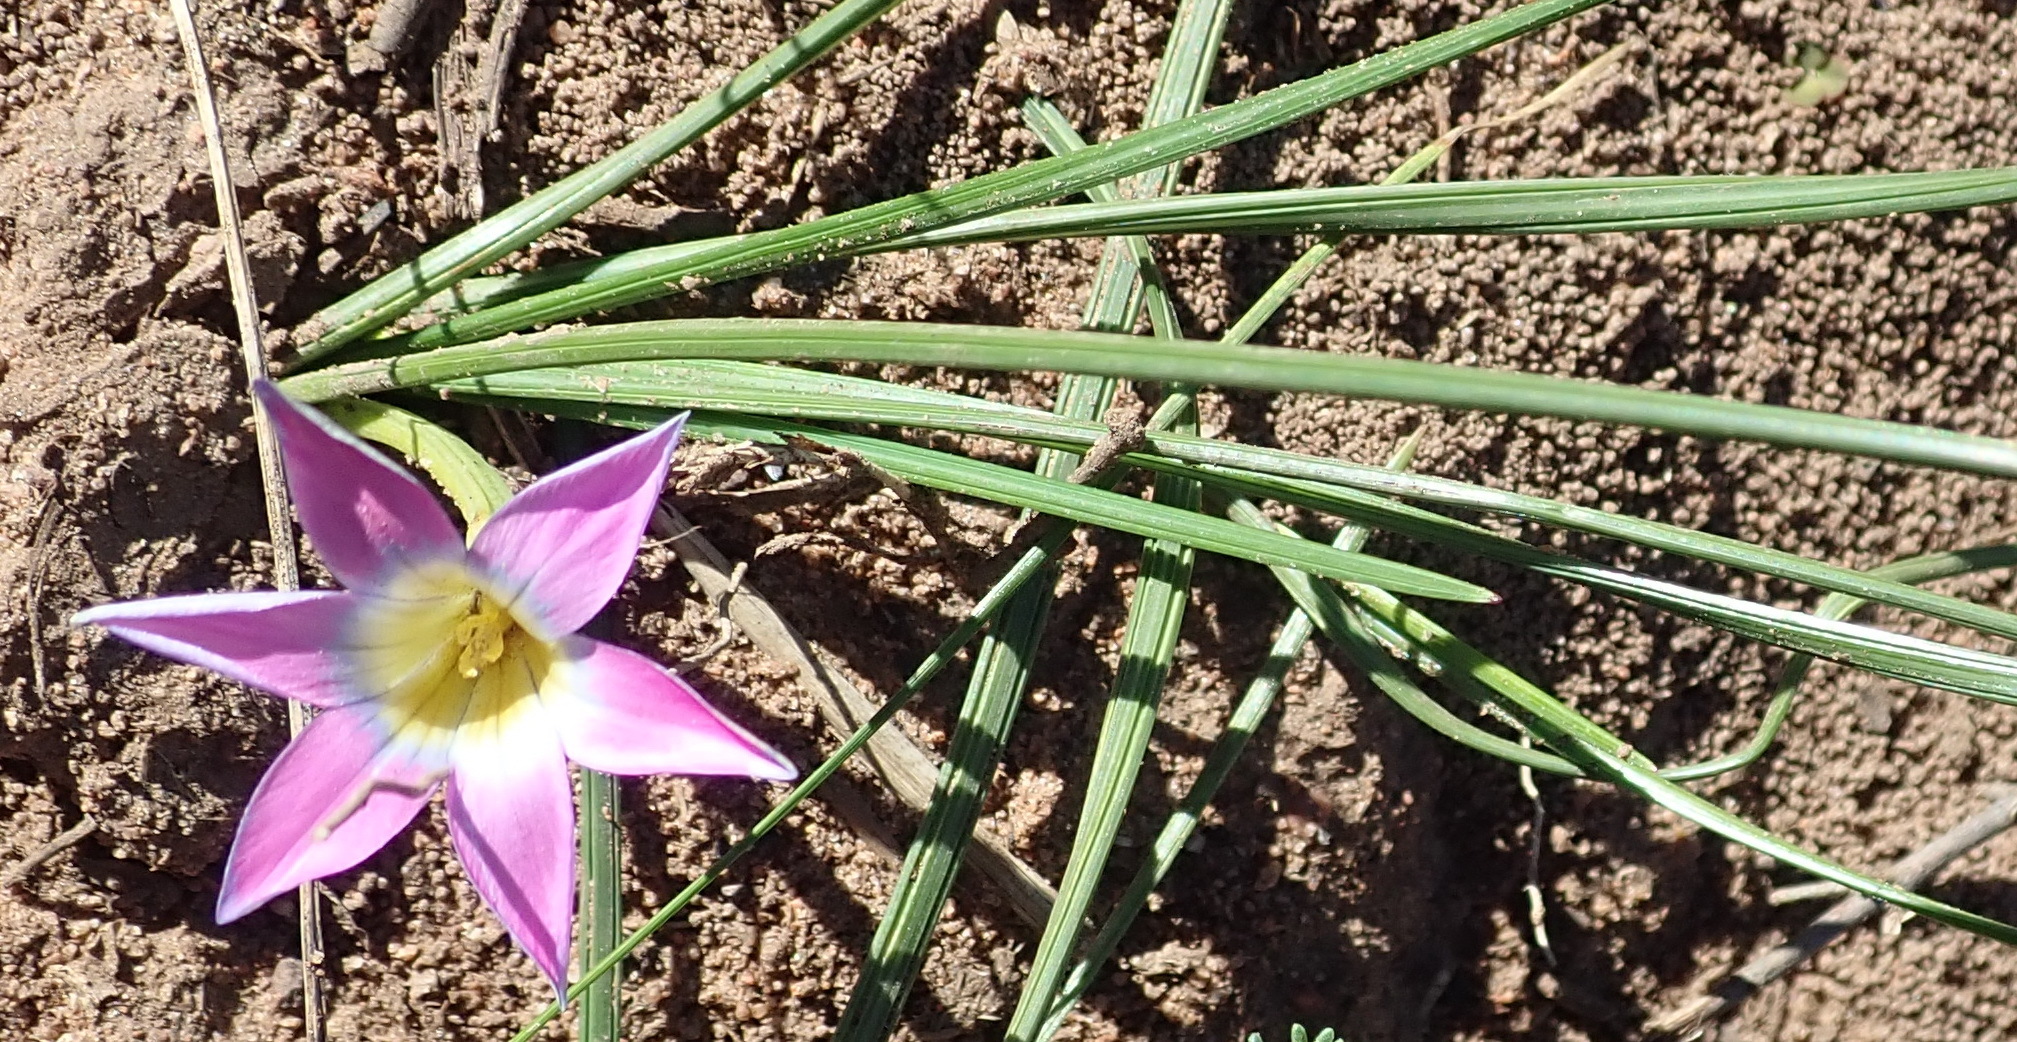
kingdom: Plantae
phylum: Tracheophyta
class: Liliopsida
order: Asparagales
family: Iridaceae
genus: Romulea
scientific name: Romulea rosea
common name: Oniongrass
